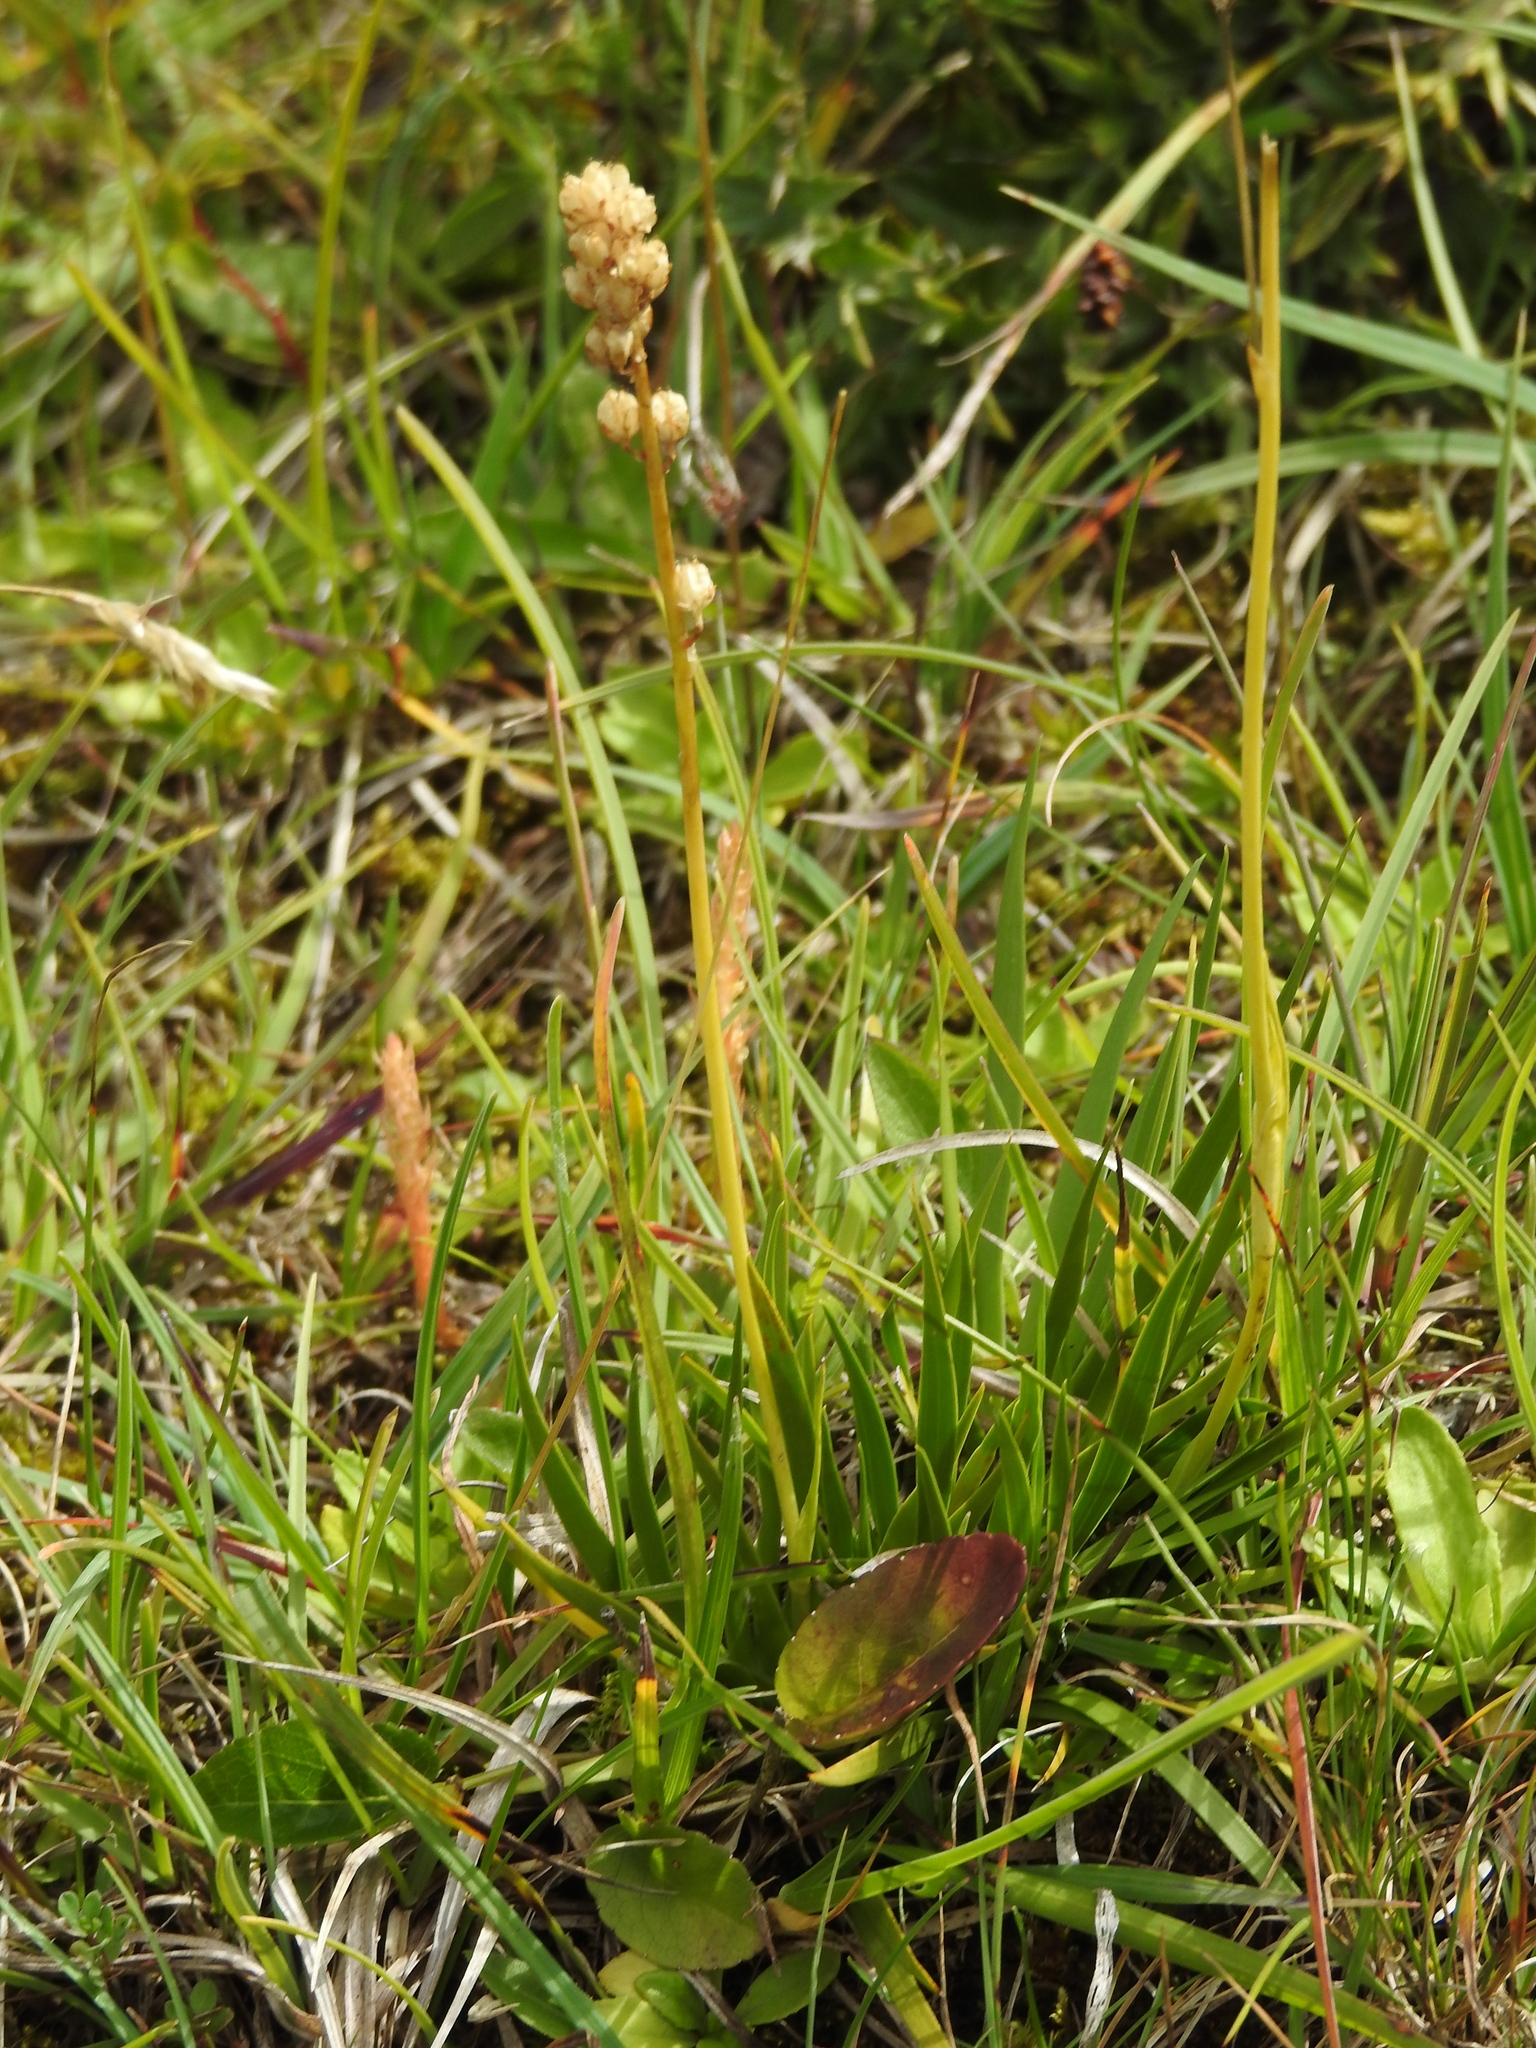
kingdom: Plantae
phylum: Tracheophyta
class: Liliopsida
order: Alismatales
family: Tofieldiaceae
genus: Tofieldia
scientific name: Tofieldia calyculata
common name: German-asphodel
